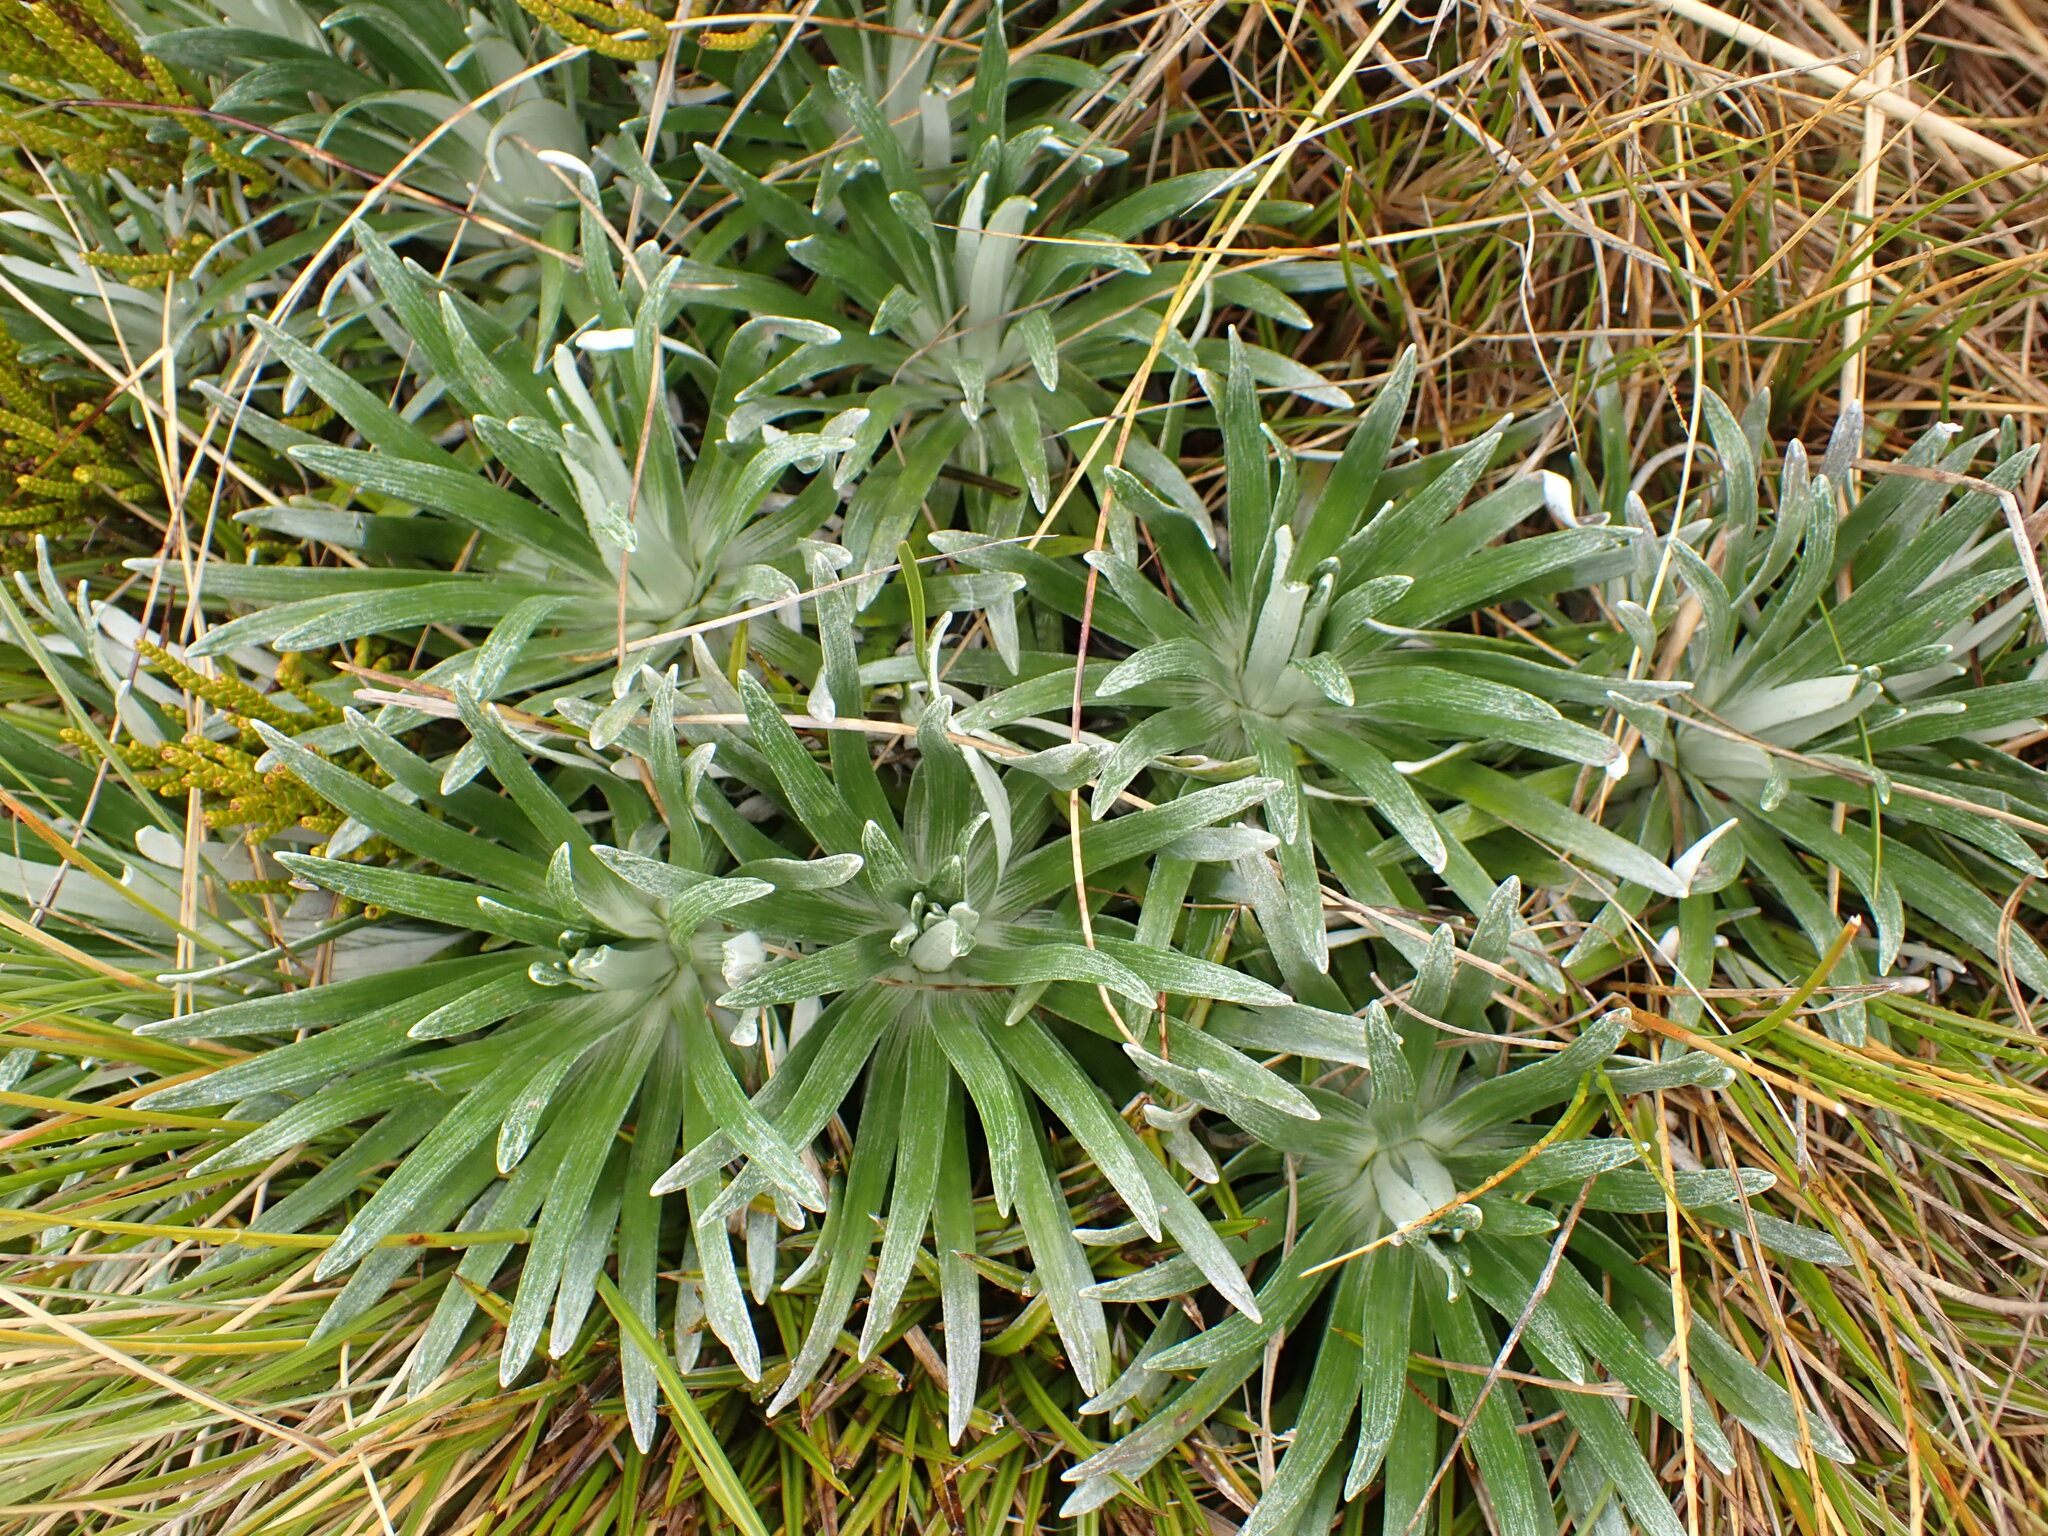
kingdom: Plantae
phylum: Tracheophyta
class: Magnoliopsida
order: Asterales
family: Asteraceae
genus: Celmisia
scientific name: Celmisia viscosa
